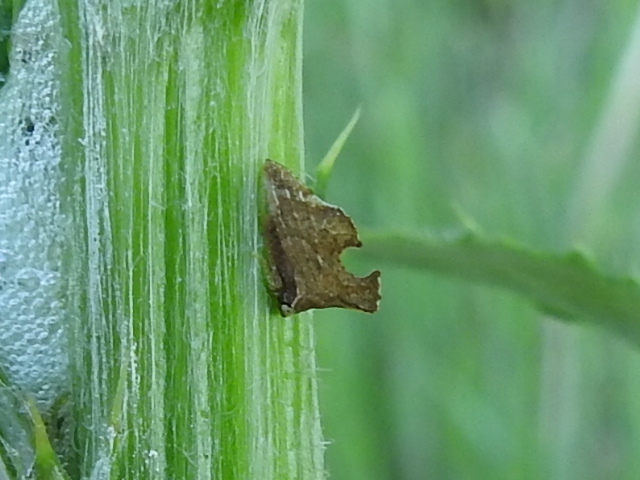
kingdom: Animalia
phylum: Arthropoda
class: Insecta
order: Hemiptera
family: Membracidae
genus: Entylia
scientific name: Entylia carinata
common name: Keeled treehopper
